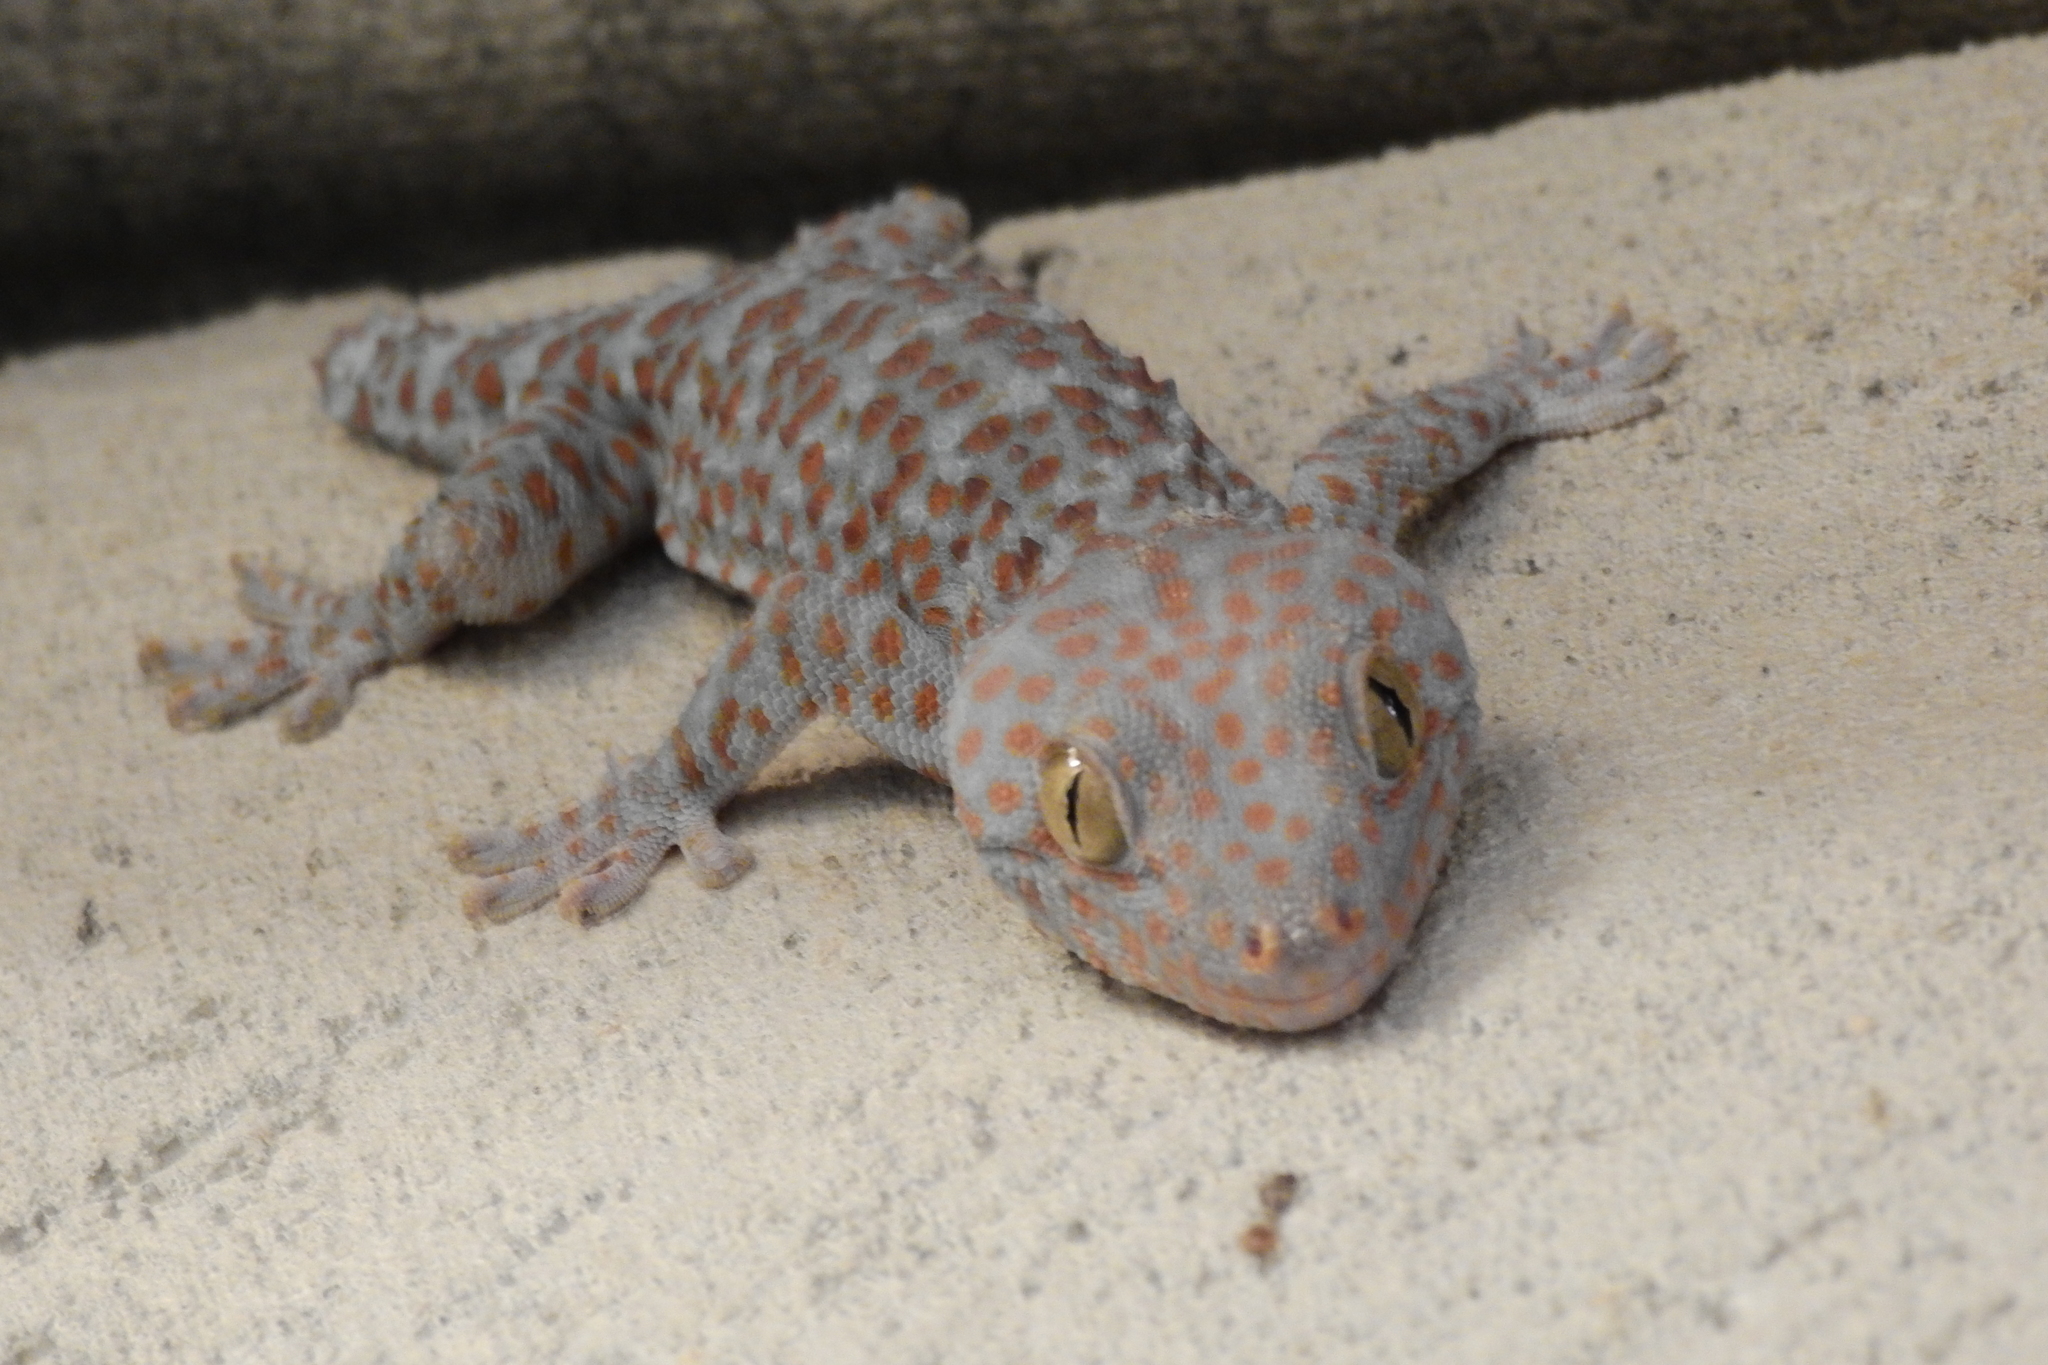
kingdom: Animalia
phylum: Chordata
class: Squamata
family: Gekkonidae
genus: Gekko
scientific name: Gekko gecko
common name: Tokay gecko
